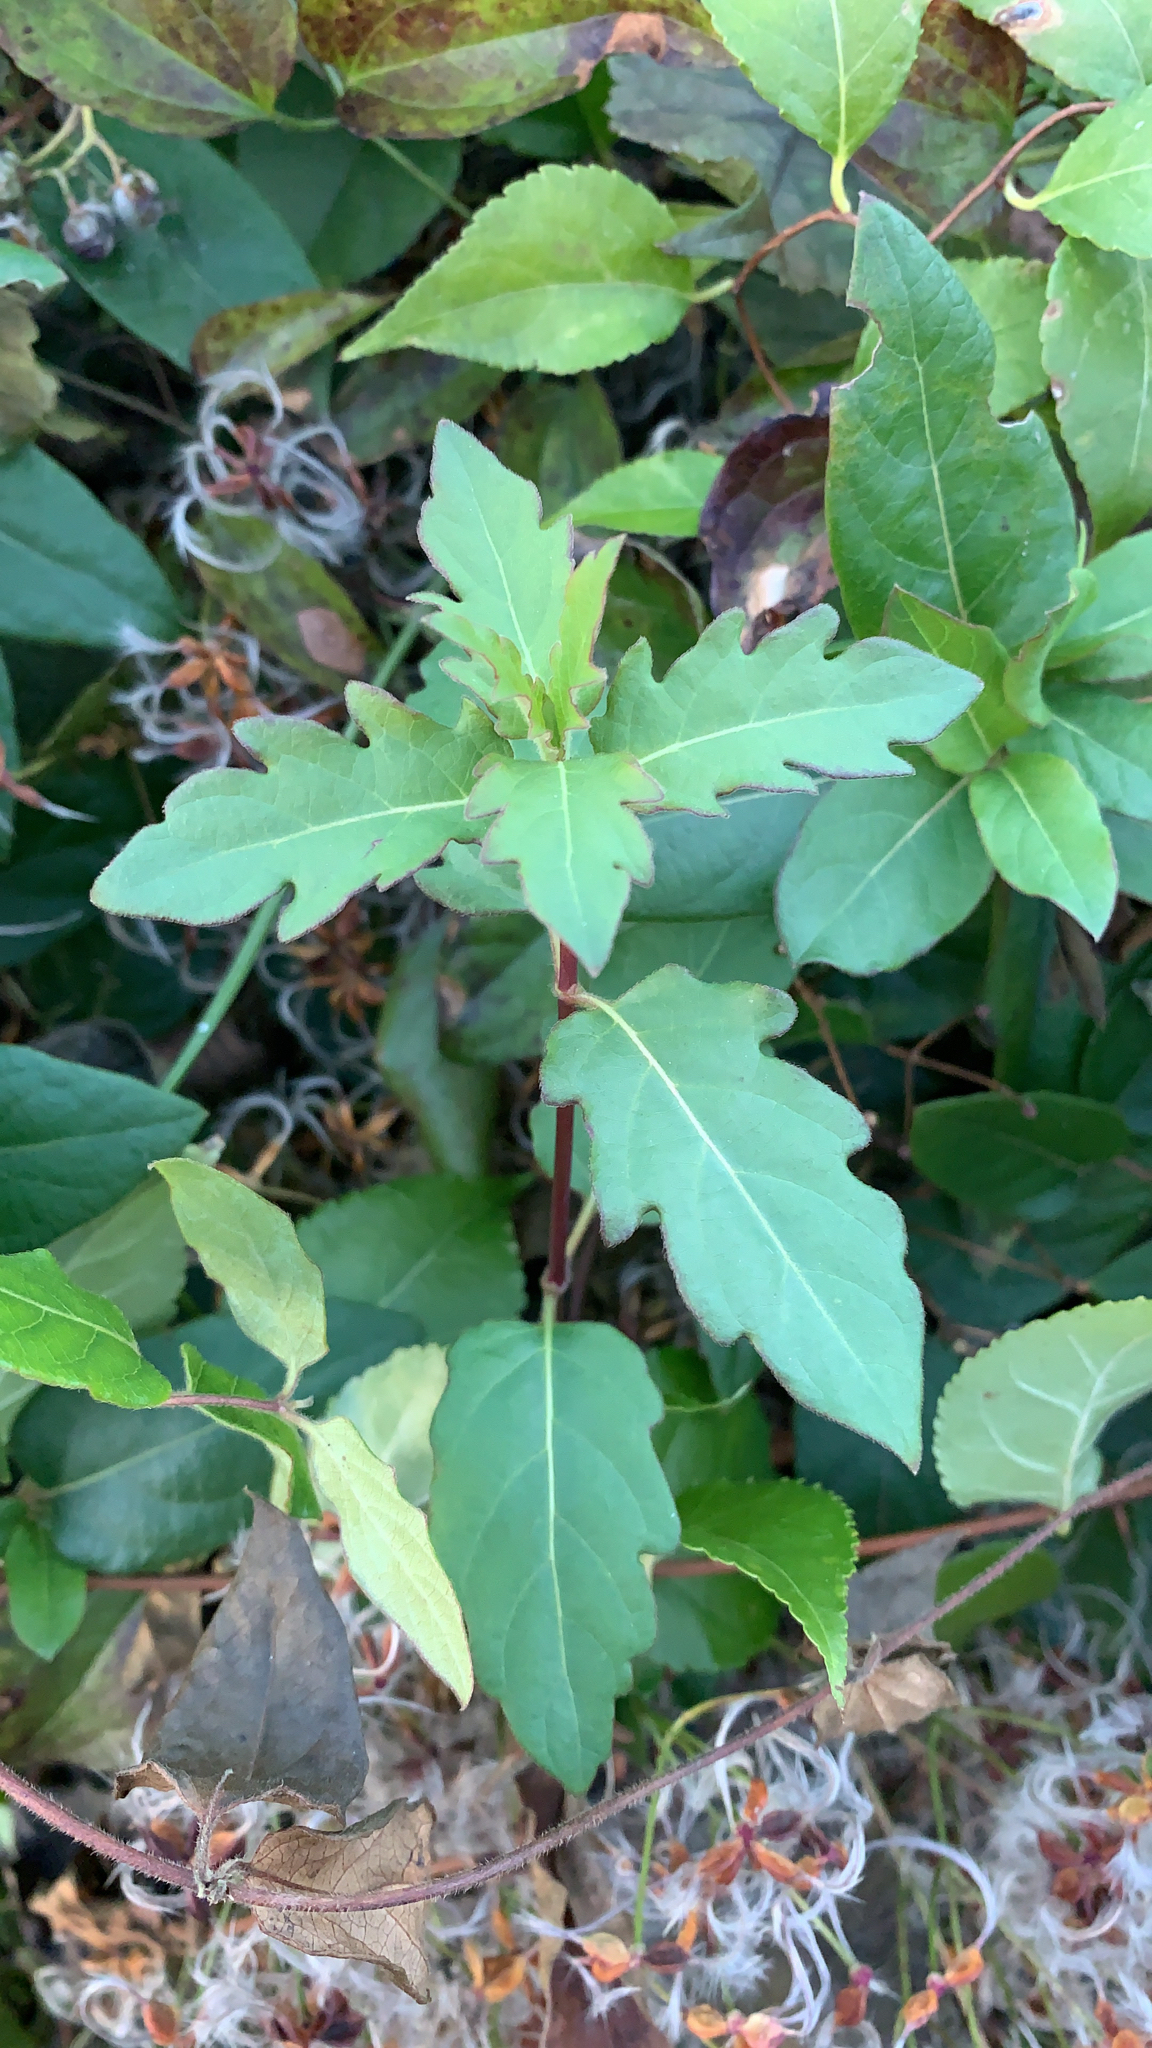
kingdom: Plantae
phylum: Tracheophyta
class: Magnoliopsida
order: Dipsacales
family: Caprifoliaceae
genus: Lonicera
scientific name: Lonicera japonica
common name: Japanese honeysuckle
